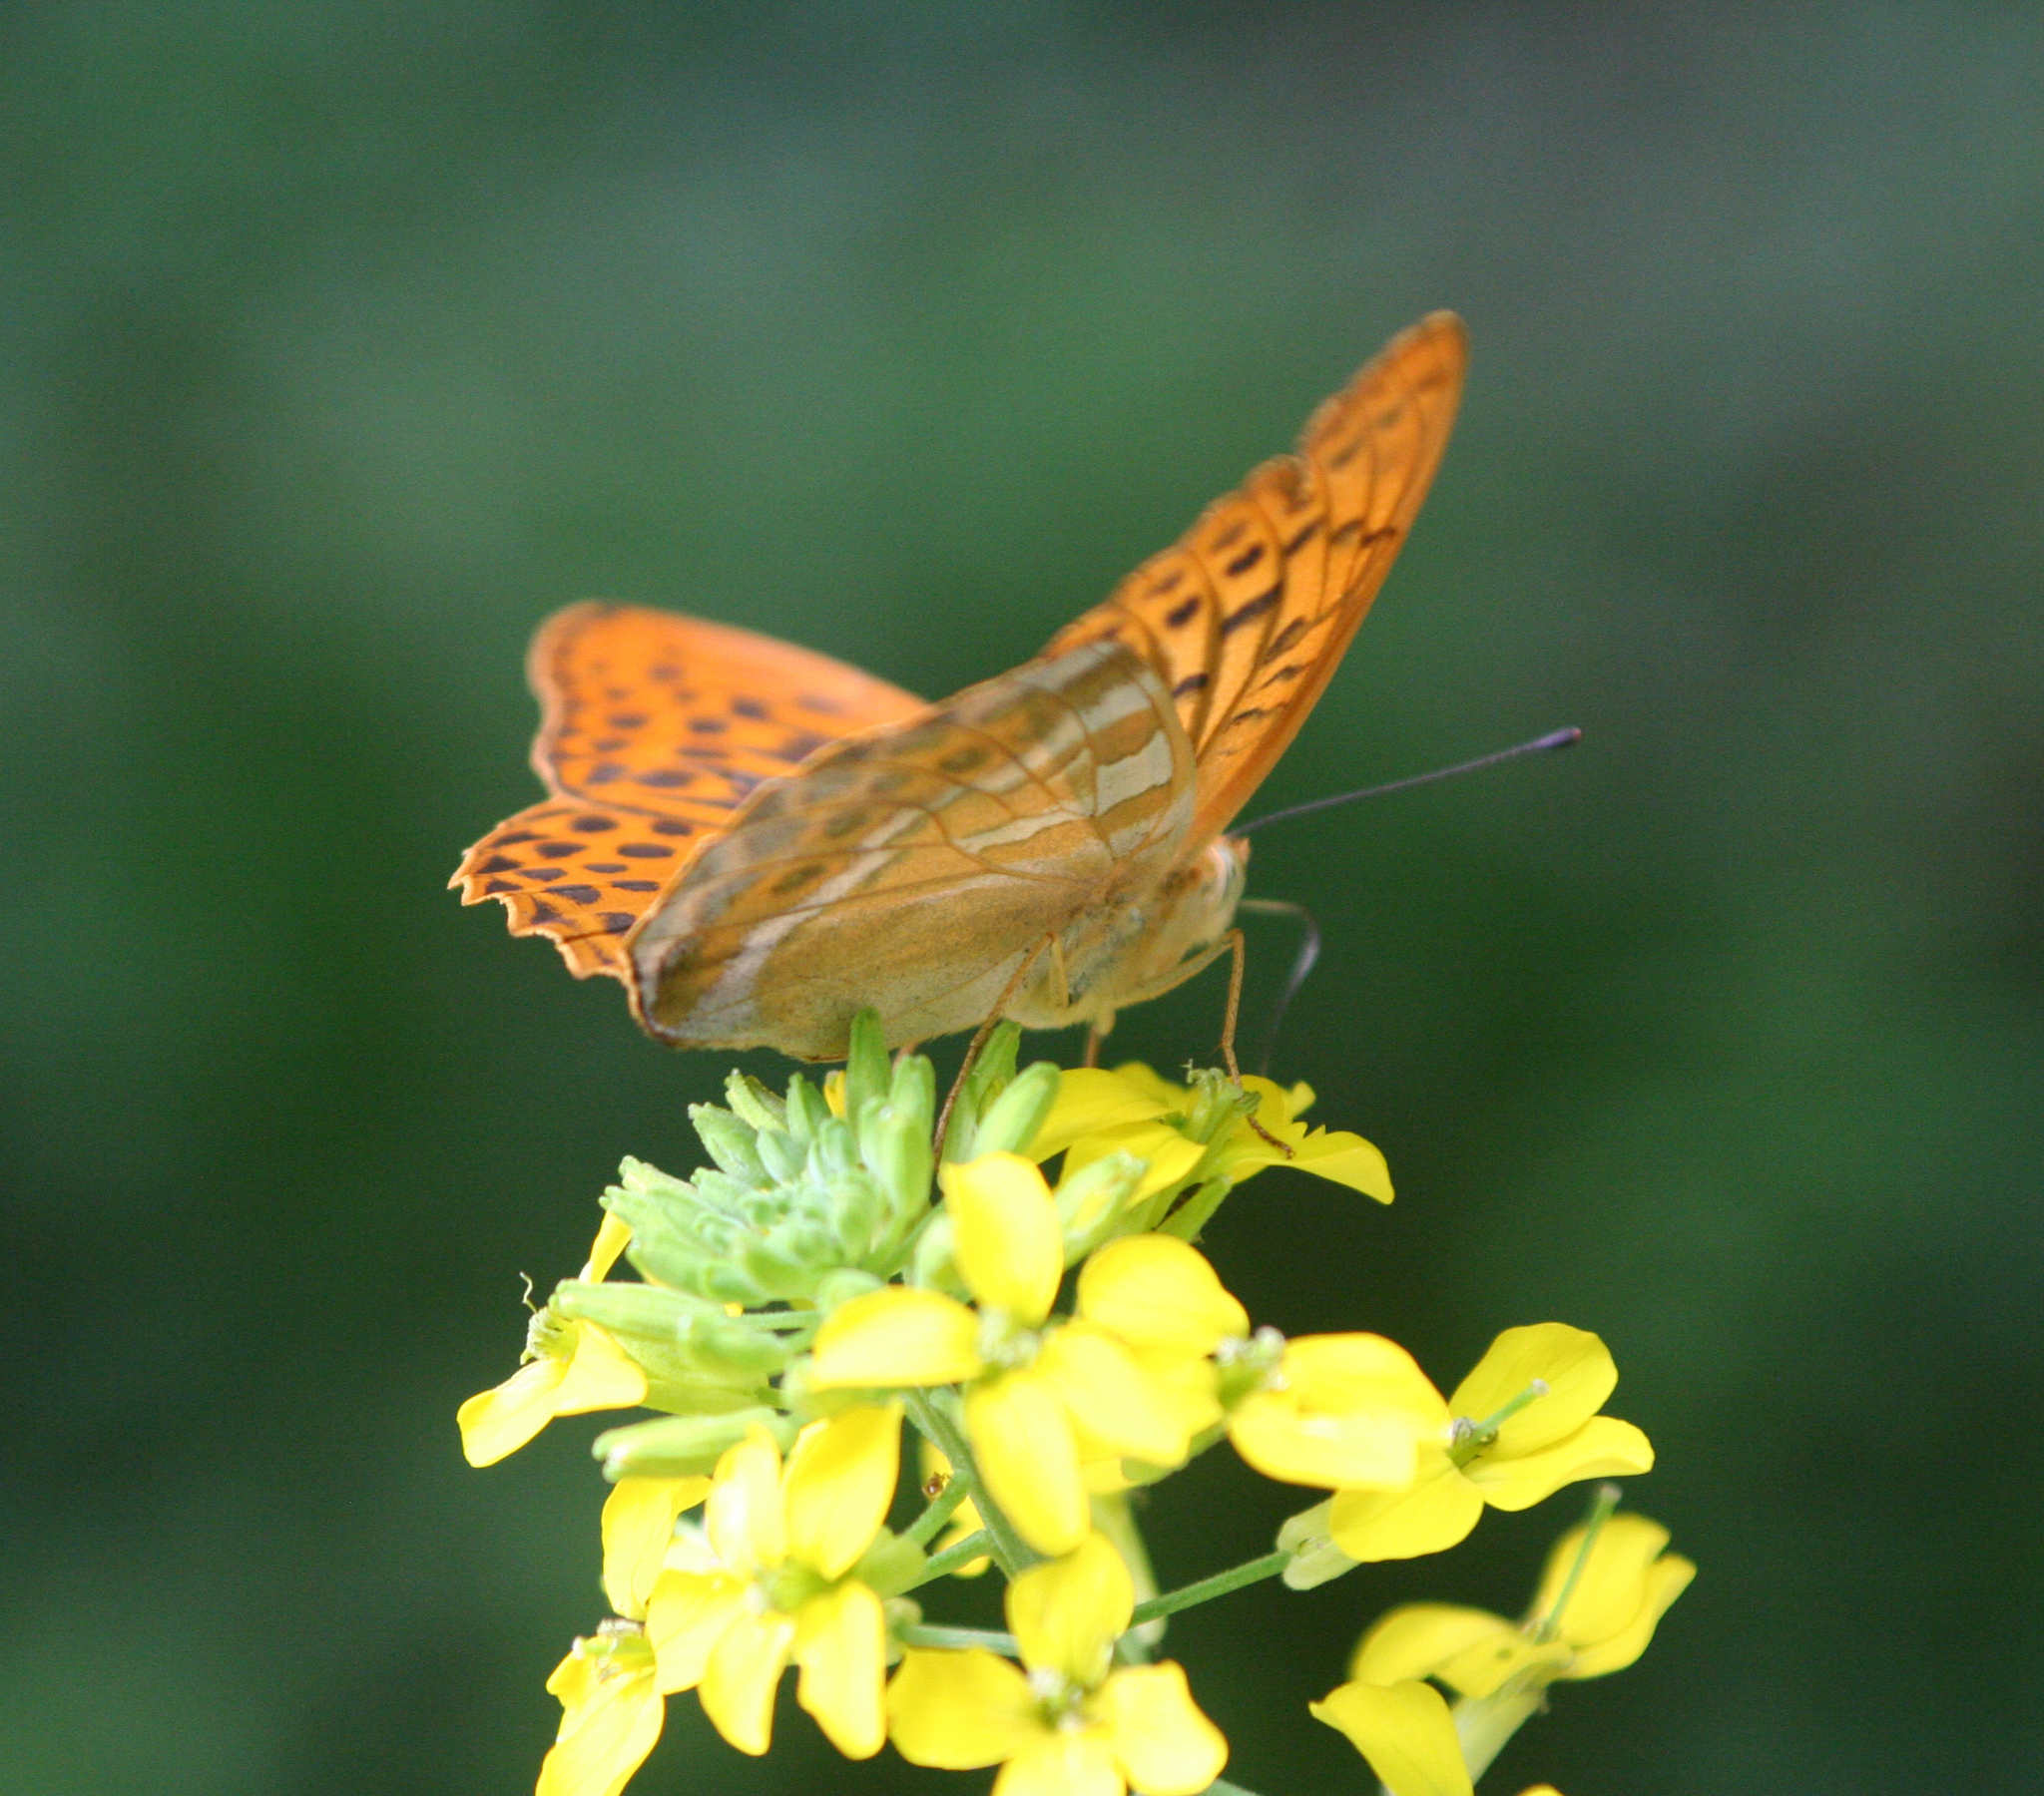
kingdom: Animalia
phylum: Arthropoda
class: Insecta
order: Lepidoptera
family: Nymphalidae
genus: Argynnis
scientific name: Argynnis paphia
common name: Silver-washed fritillary
